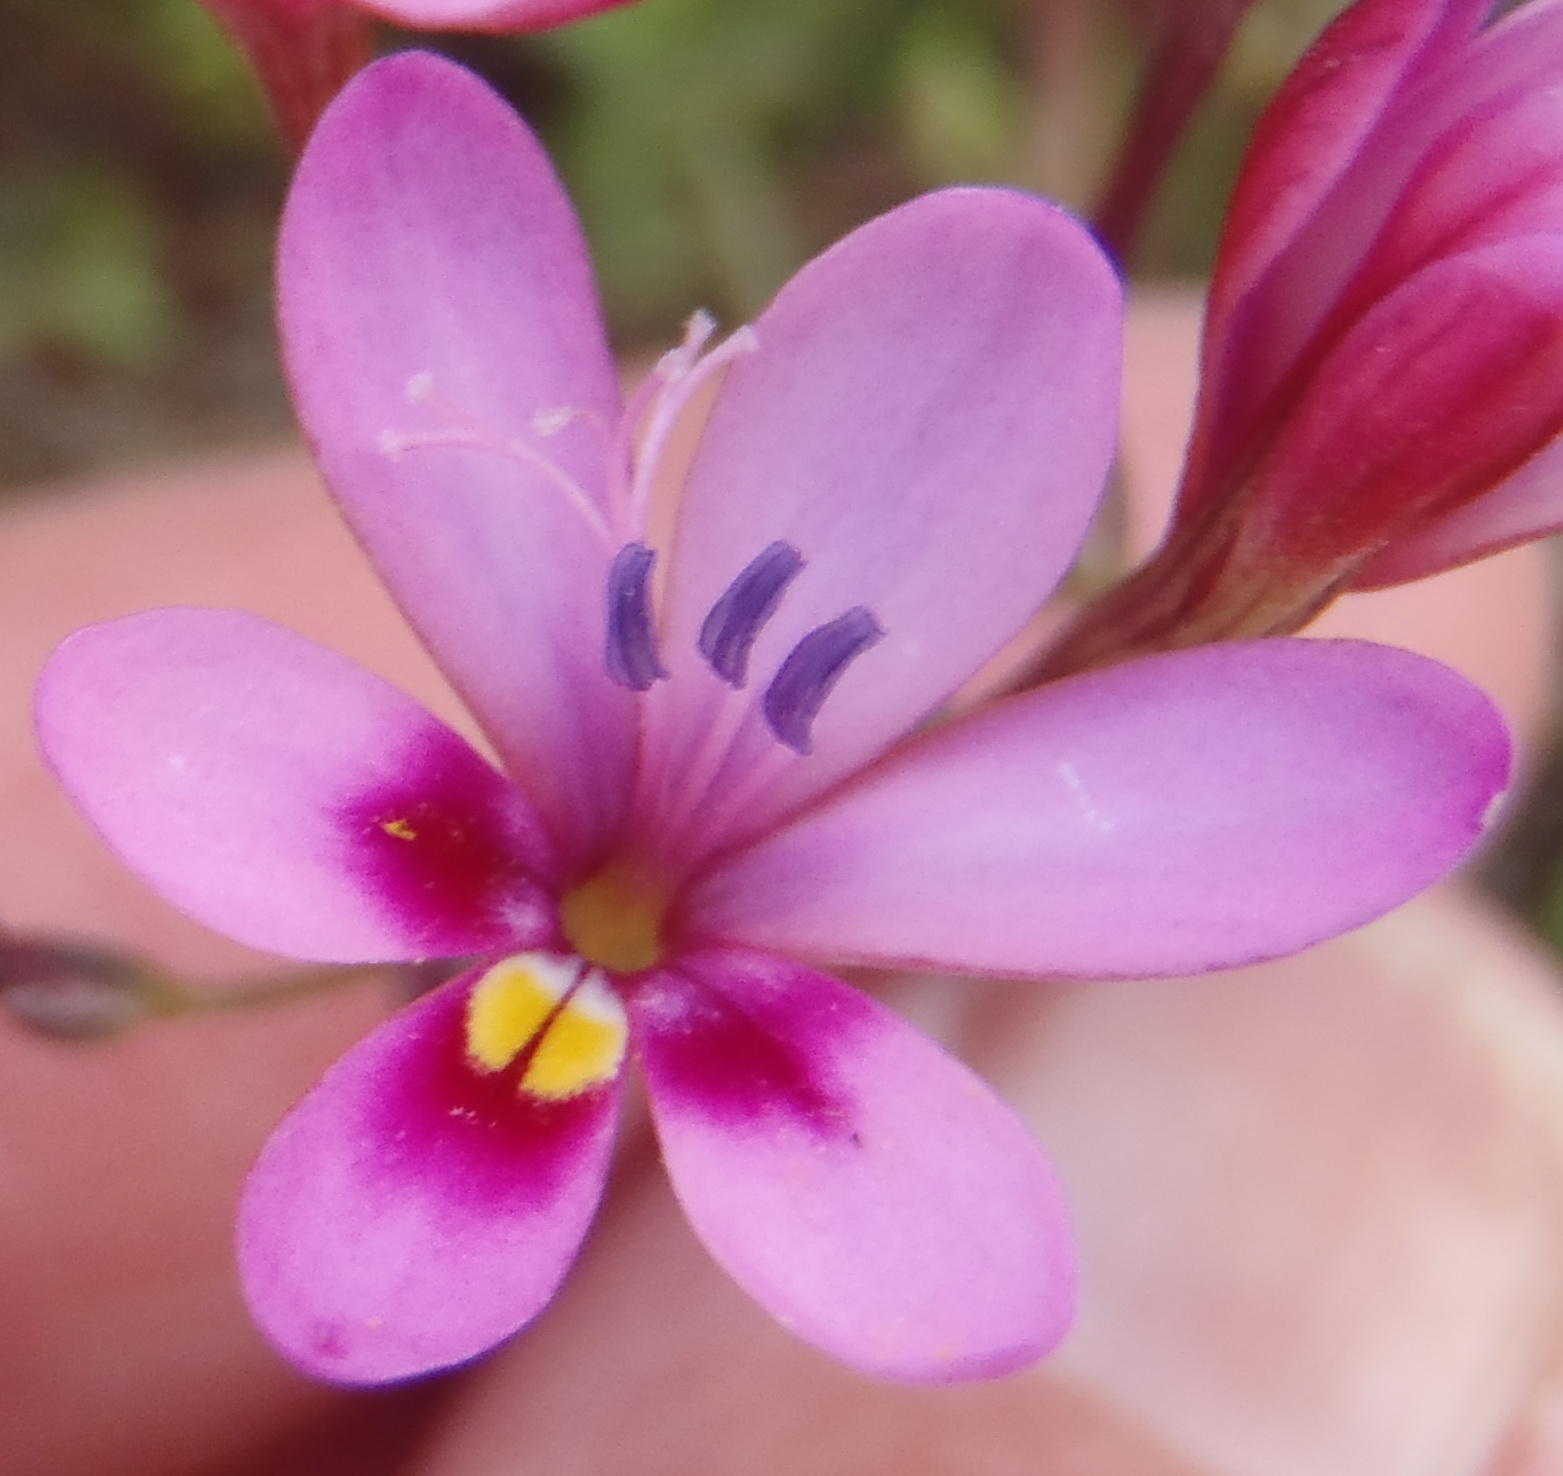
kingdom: Plantae
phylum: Tracheophyta
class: Liliopsida
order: Asparagales
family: Iridaceae
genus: Freesia
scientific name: Freesia verrucosa
